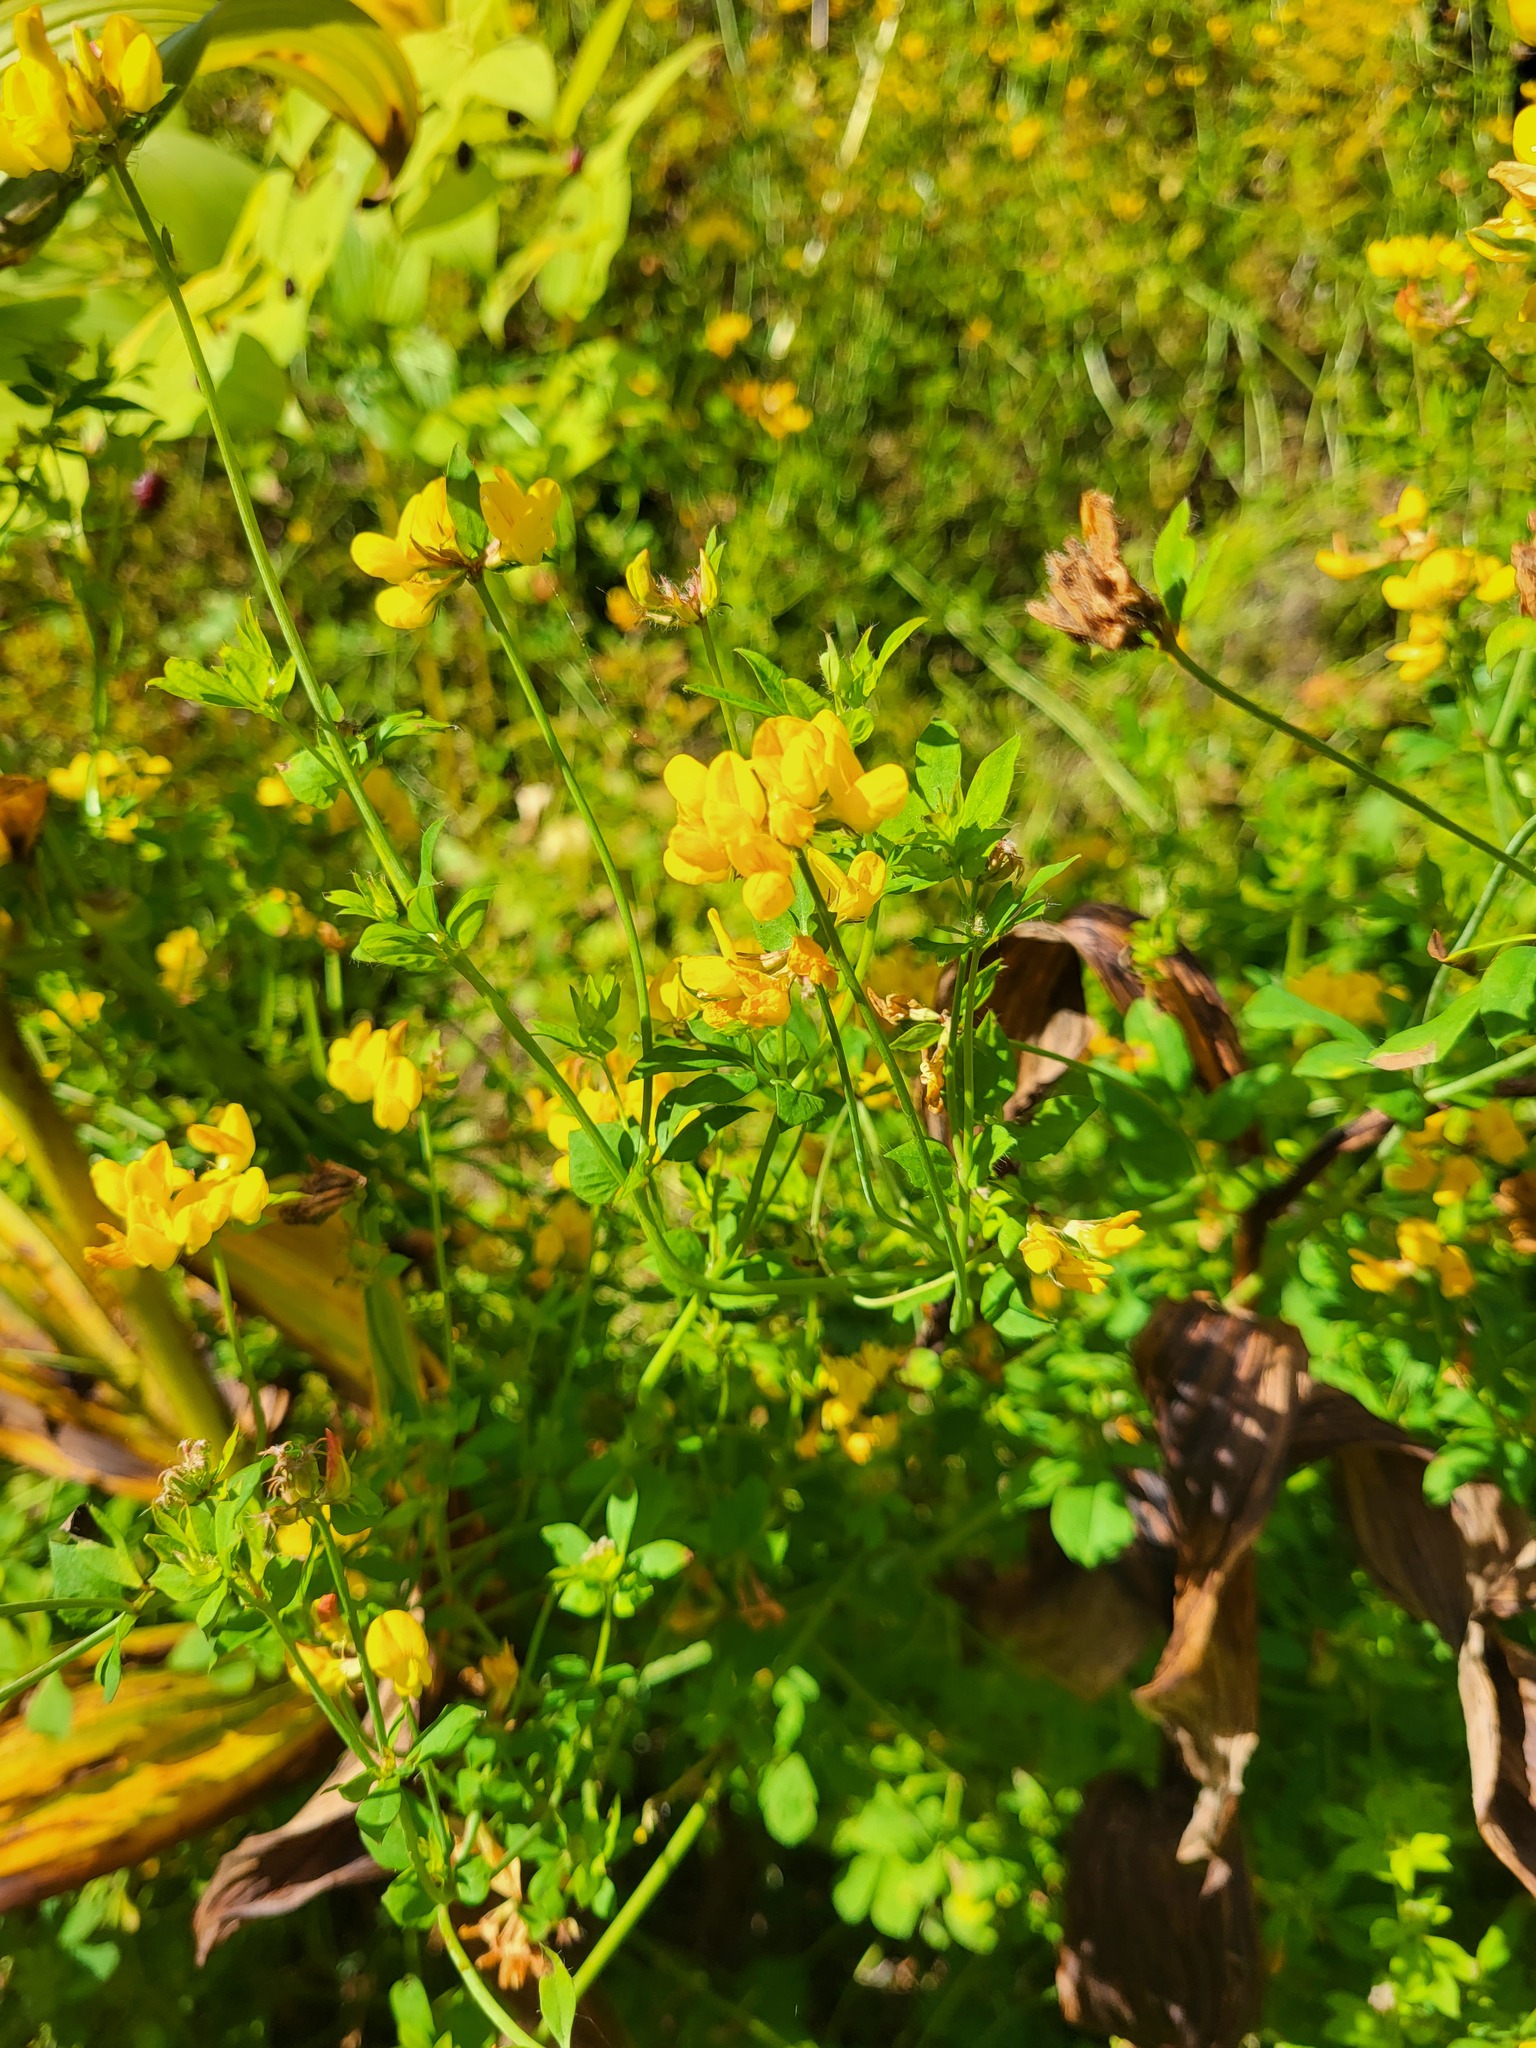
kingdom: Plantae
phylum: Tracheophyta
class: Magnoliopsida
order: Fabales
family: Fabaceae
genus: Lotus
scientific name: Lotus corniculatus
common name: Common bird's-foot-trefoil
